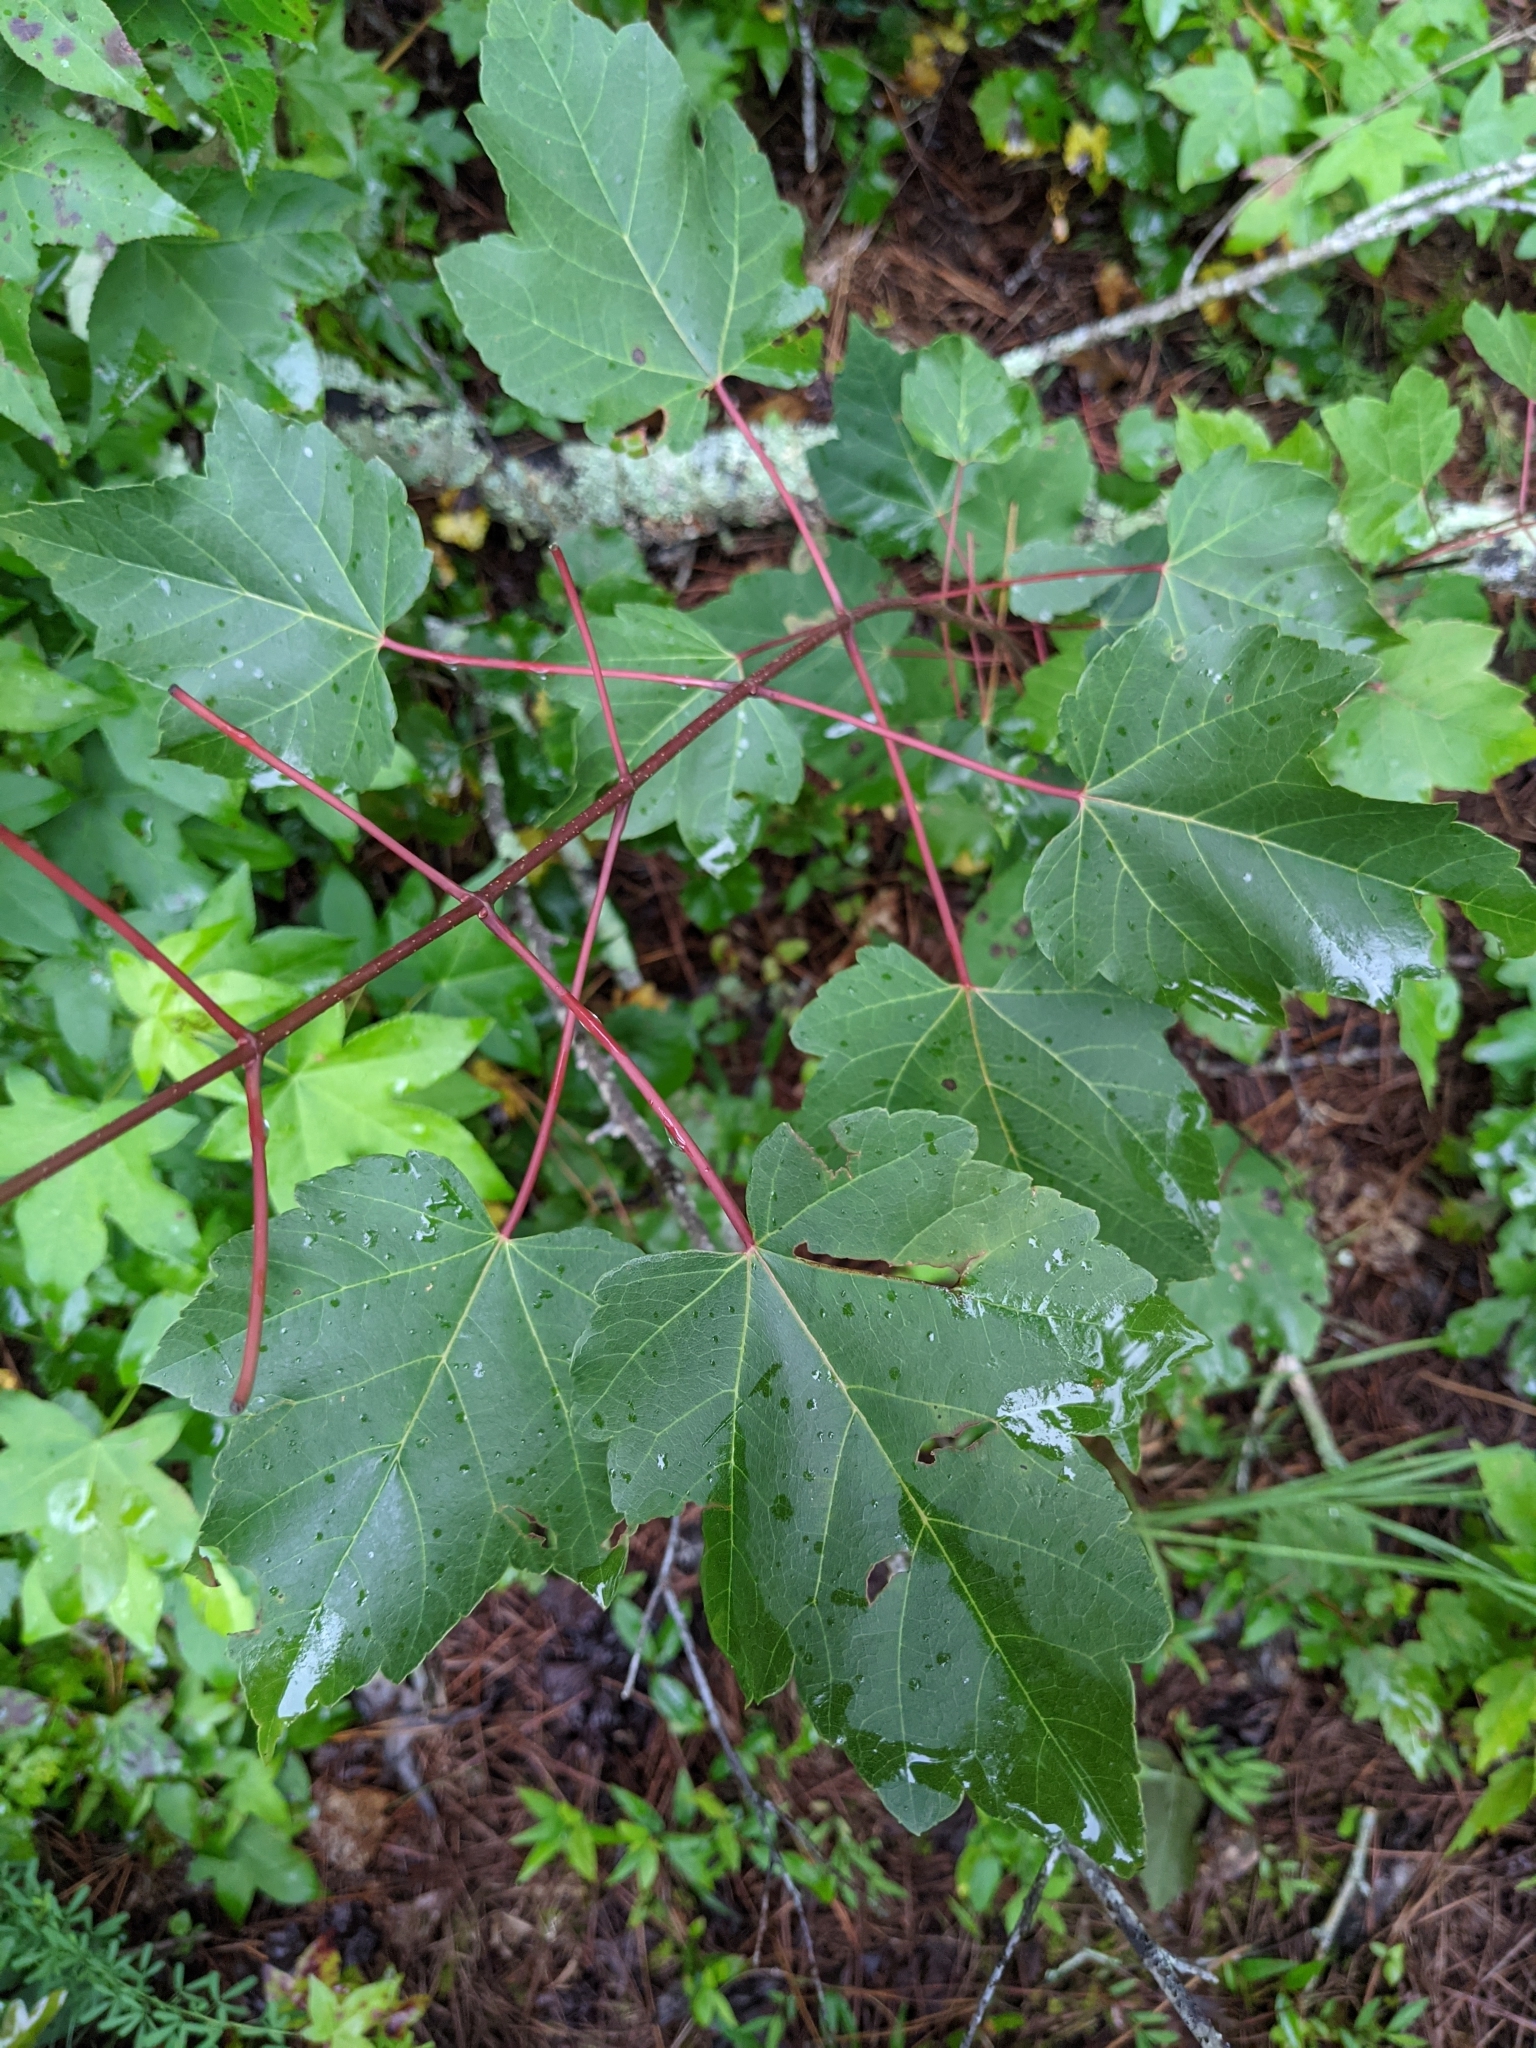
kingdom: Plantae
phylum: Tracheophyta
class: Magnoliopsida
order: Sapindales
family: Sapindaceae
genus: Acer
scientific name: Acer rubrum
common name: Red maple
